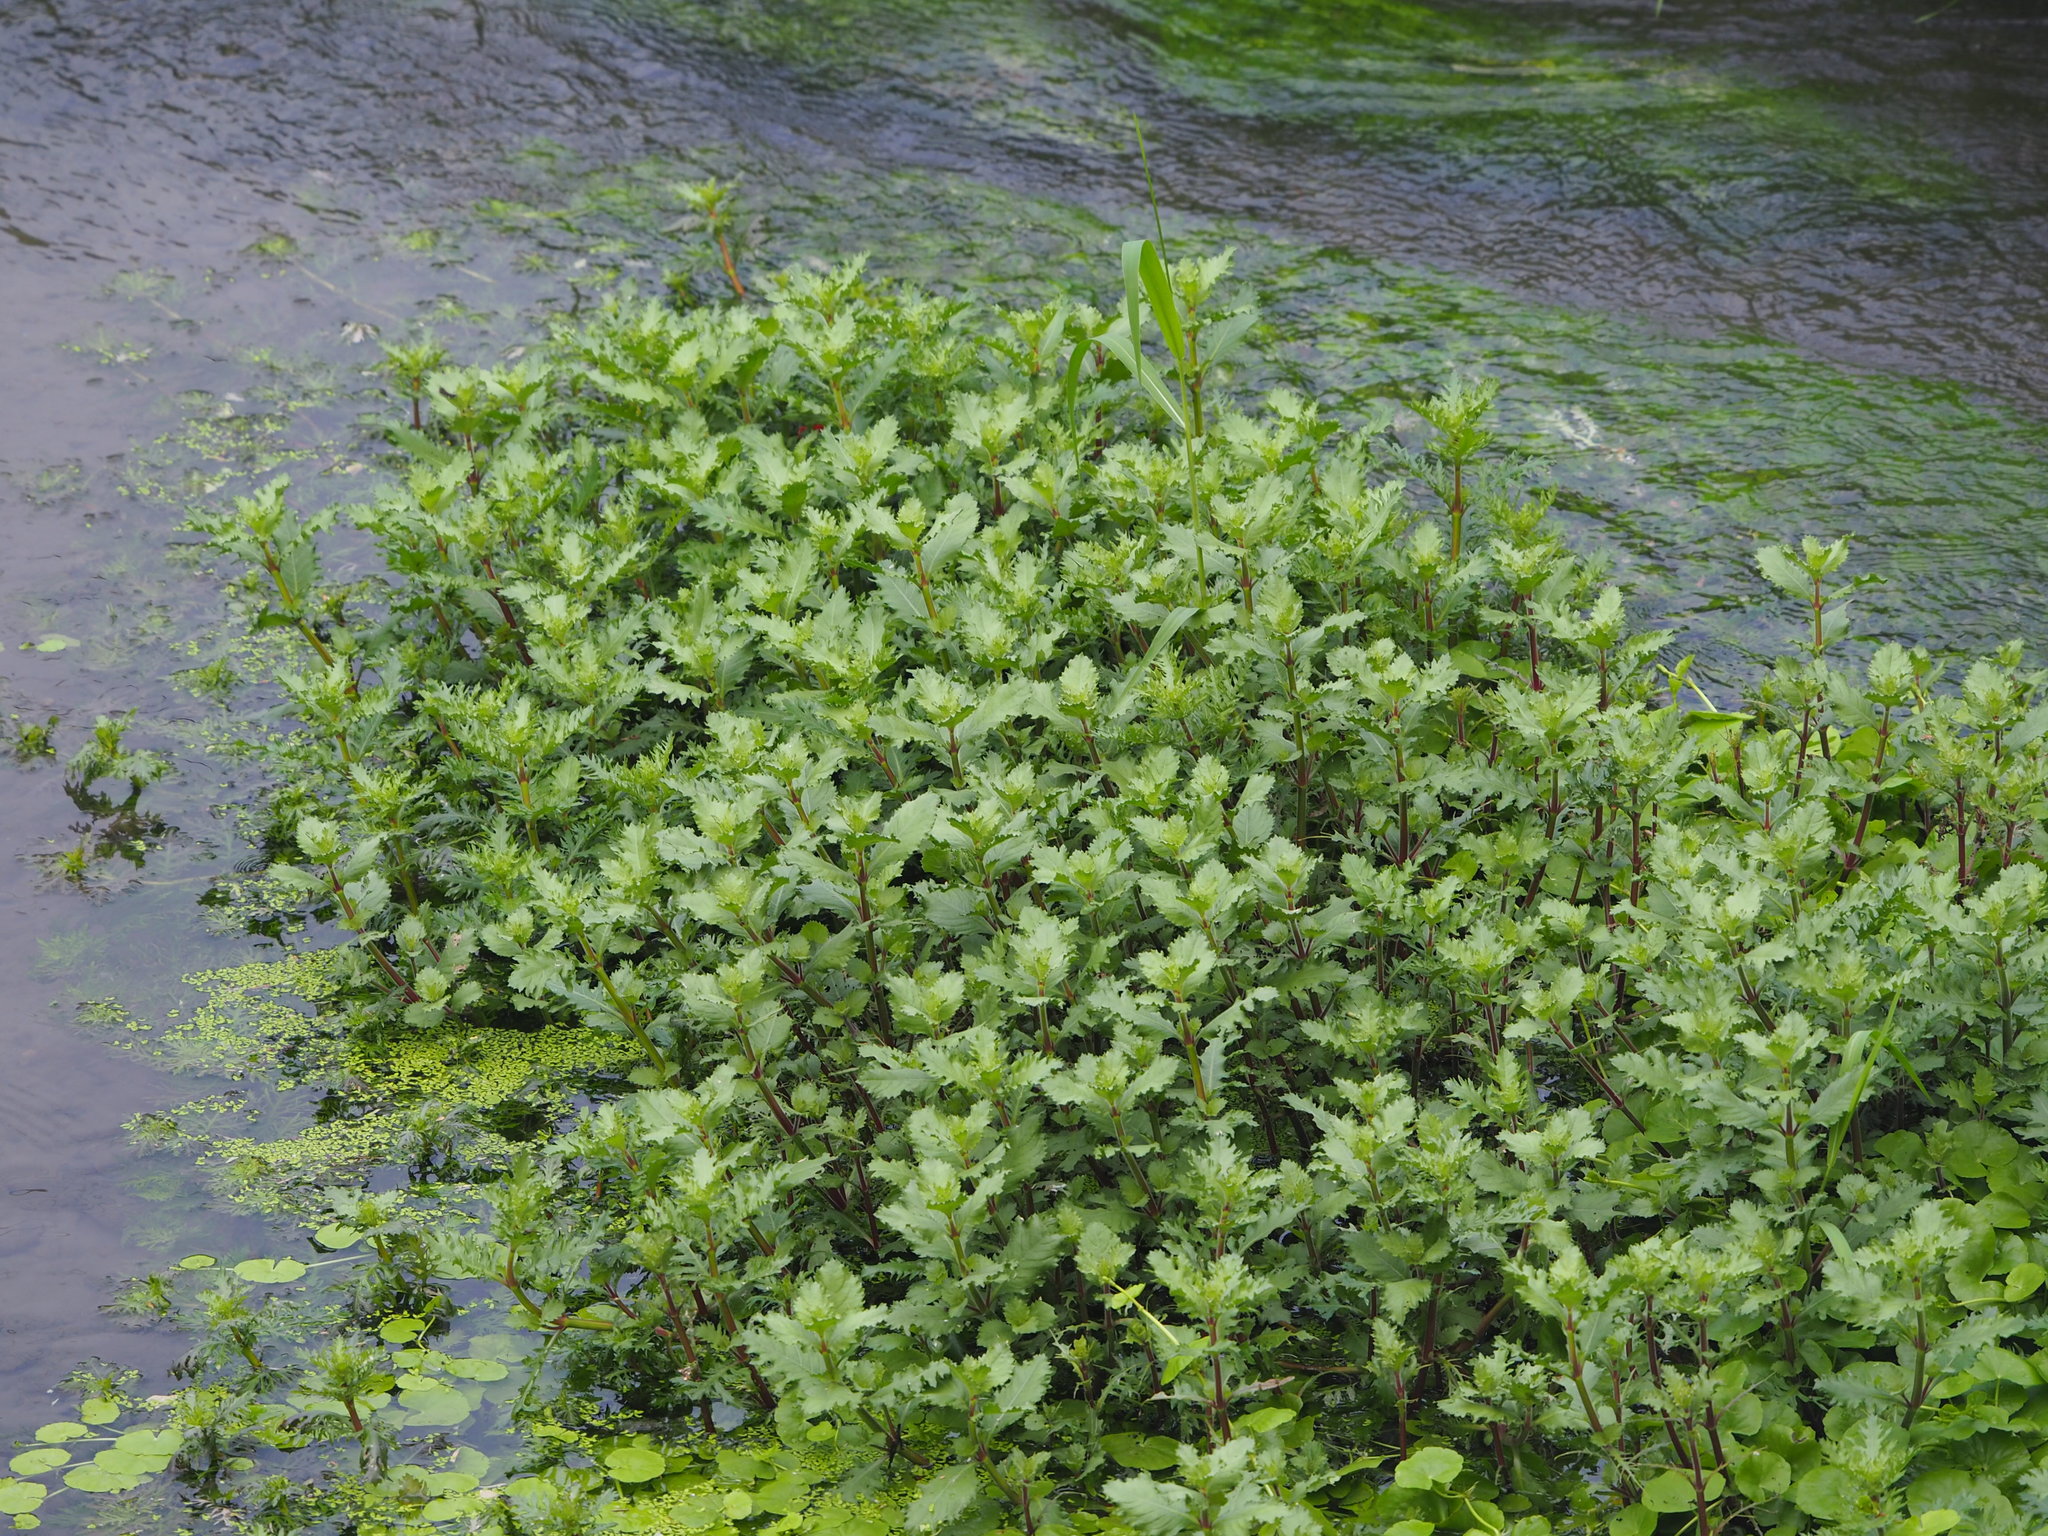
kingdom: Plantae
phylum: Tracheophyta
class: Magnoliopsida
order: Lamiales
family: Acanthaceae
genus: Hygrophila
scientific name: Hygrophila difformis
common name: Water-wisteria
